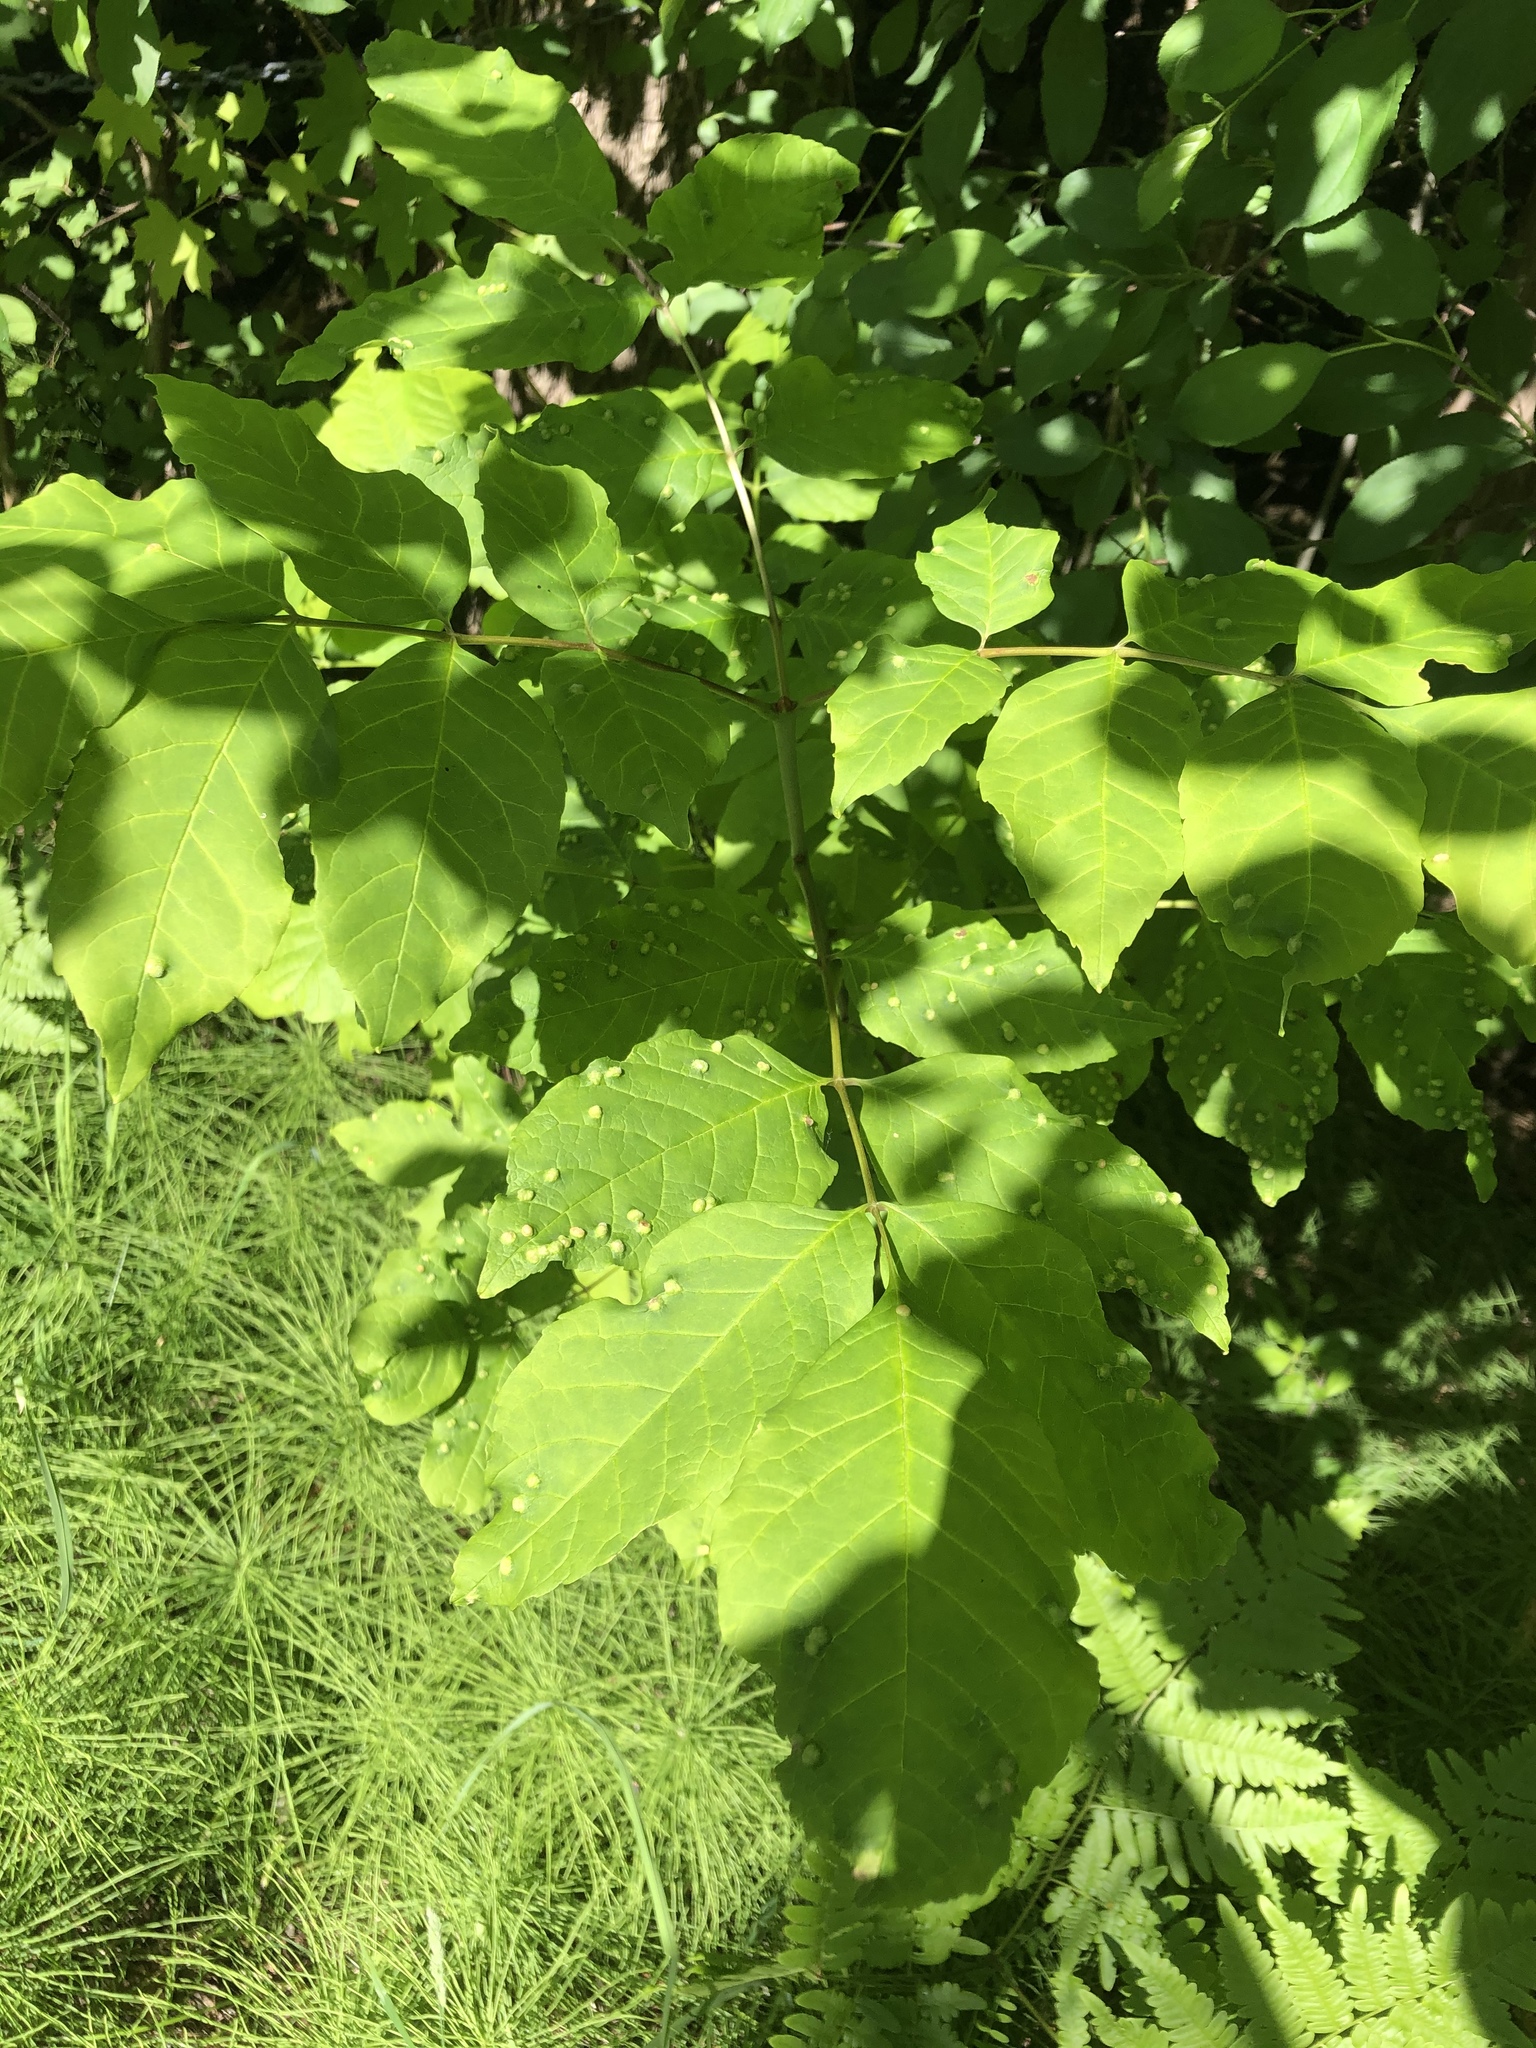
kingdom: Animalia
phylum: Arthropoda
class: Arachnida
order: Trombidiformes
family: Eriophyidae
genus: Aceria
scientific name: Aceria fraxinicola
